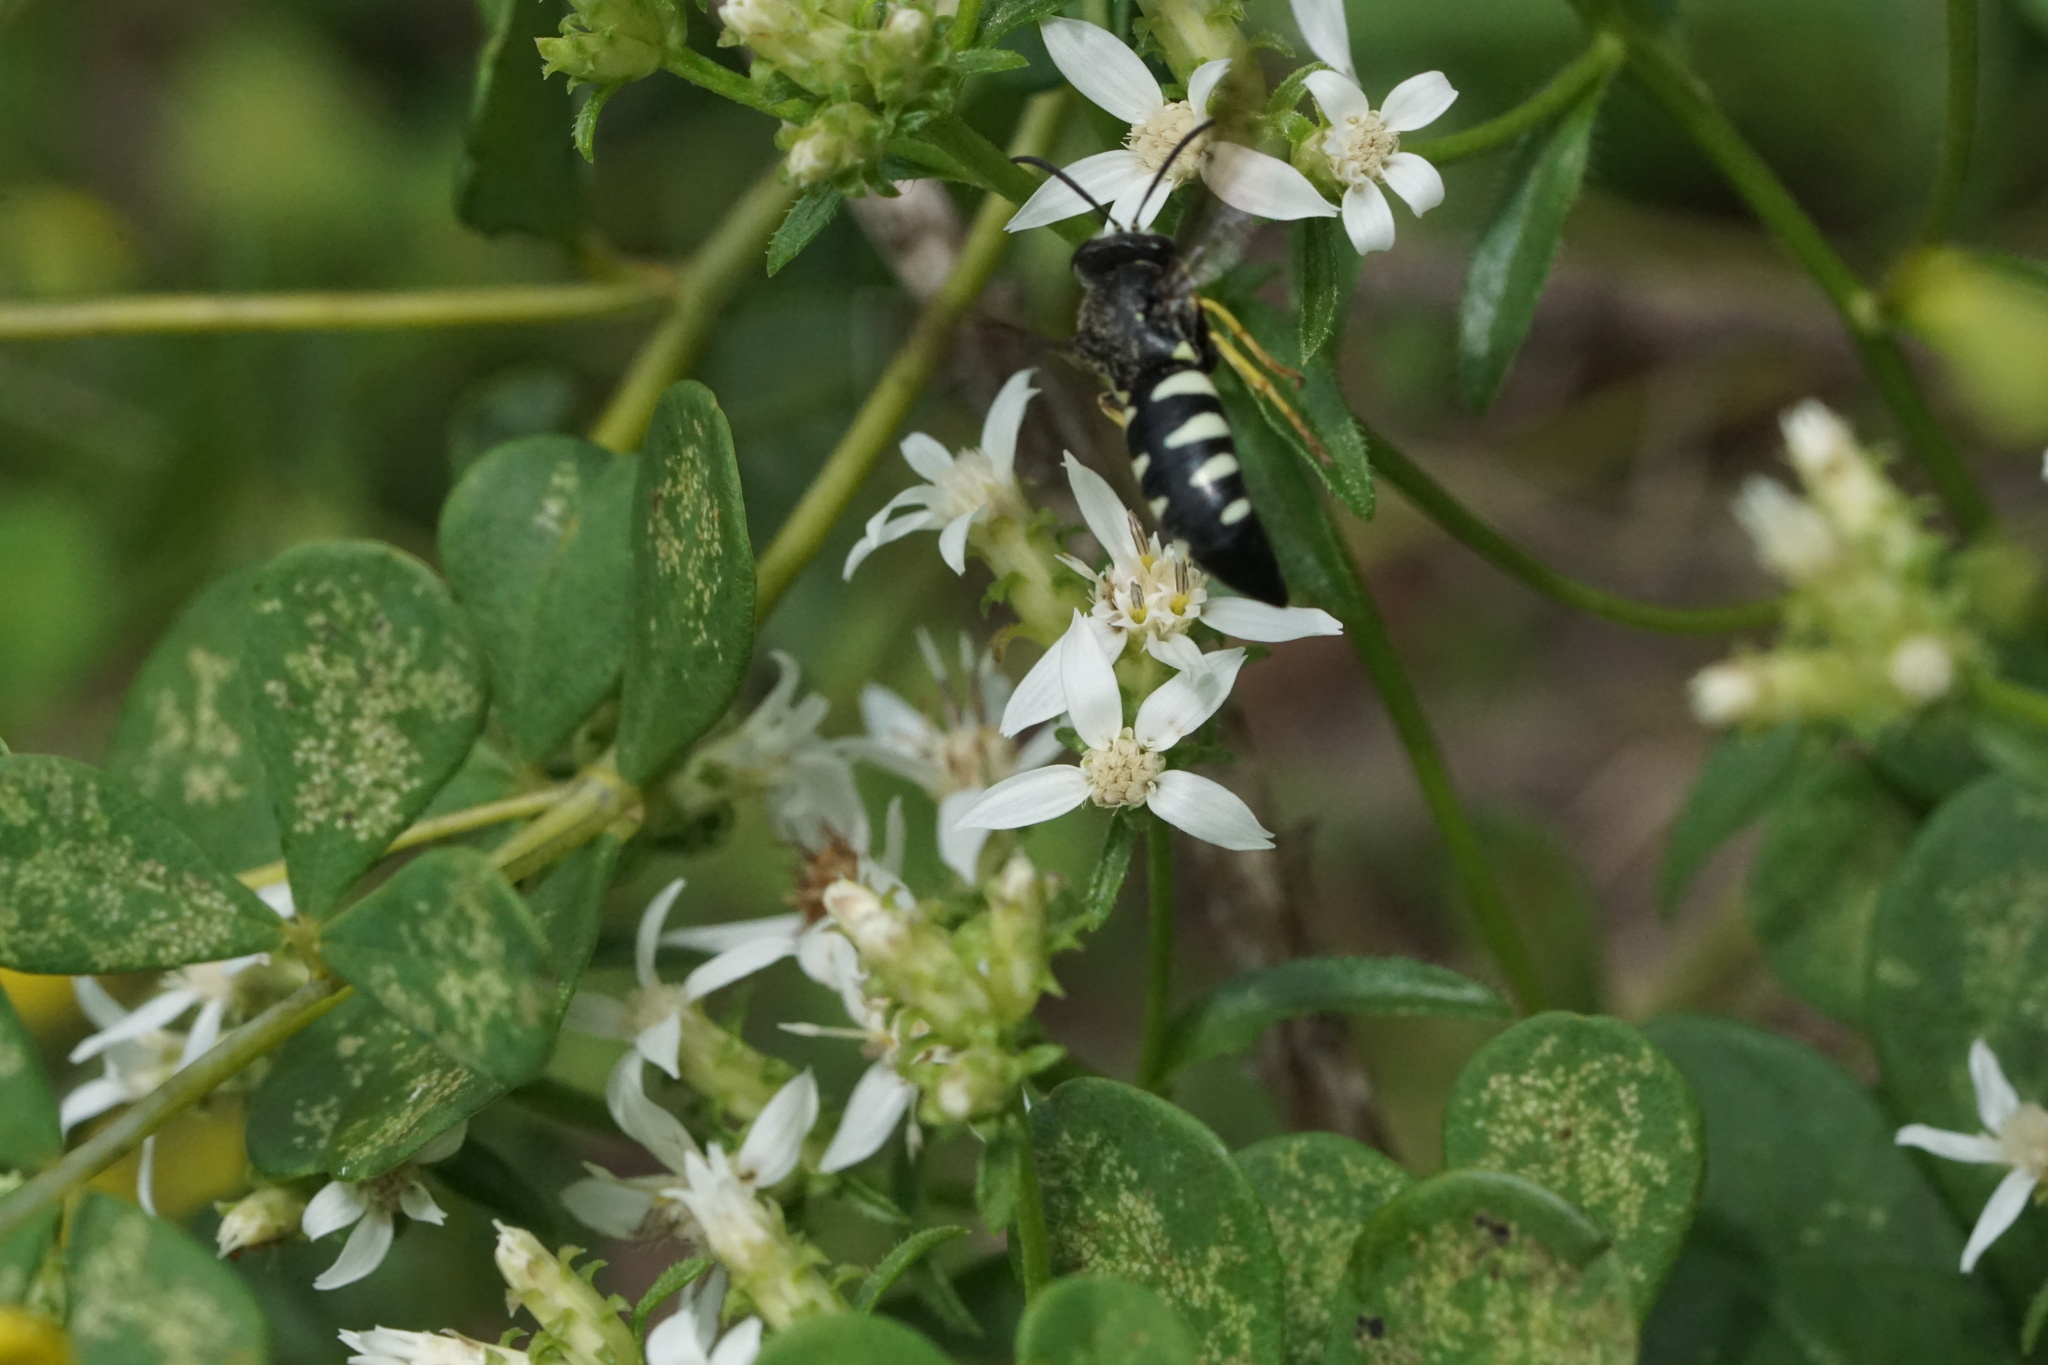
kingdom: Animalia
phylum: Arthropoda
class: Insecta
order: Hymenoptera
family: Crabronidae
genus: Bicyrtes
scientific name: Bicyrtes quadrifasciatus
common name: Four-banded stink bug hunter wasp
